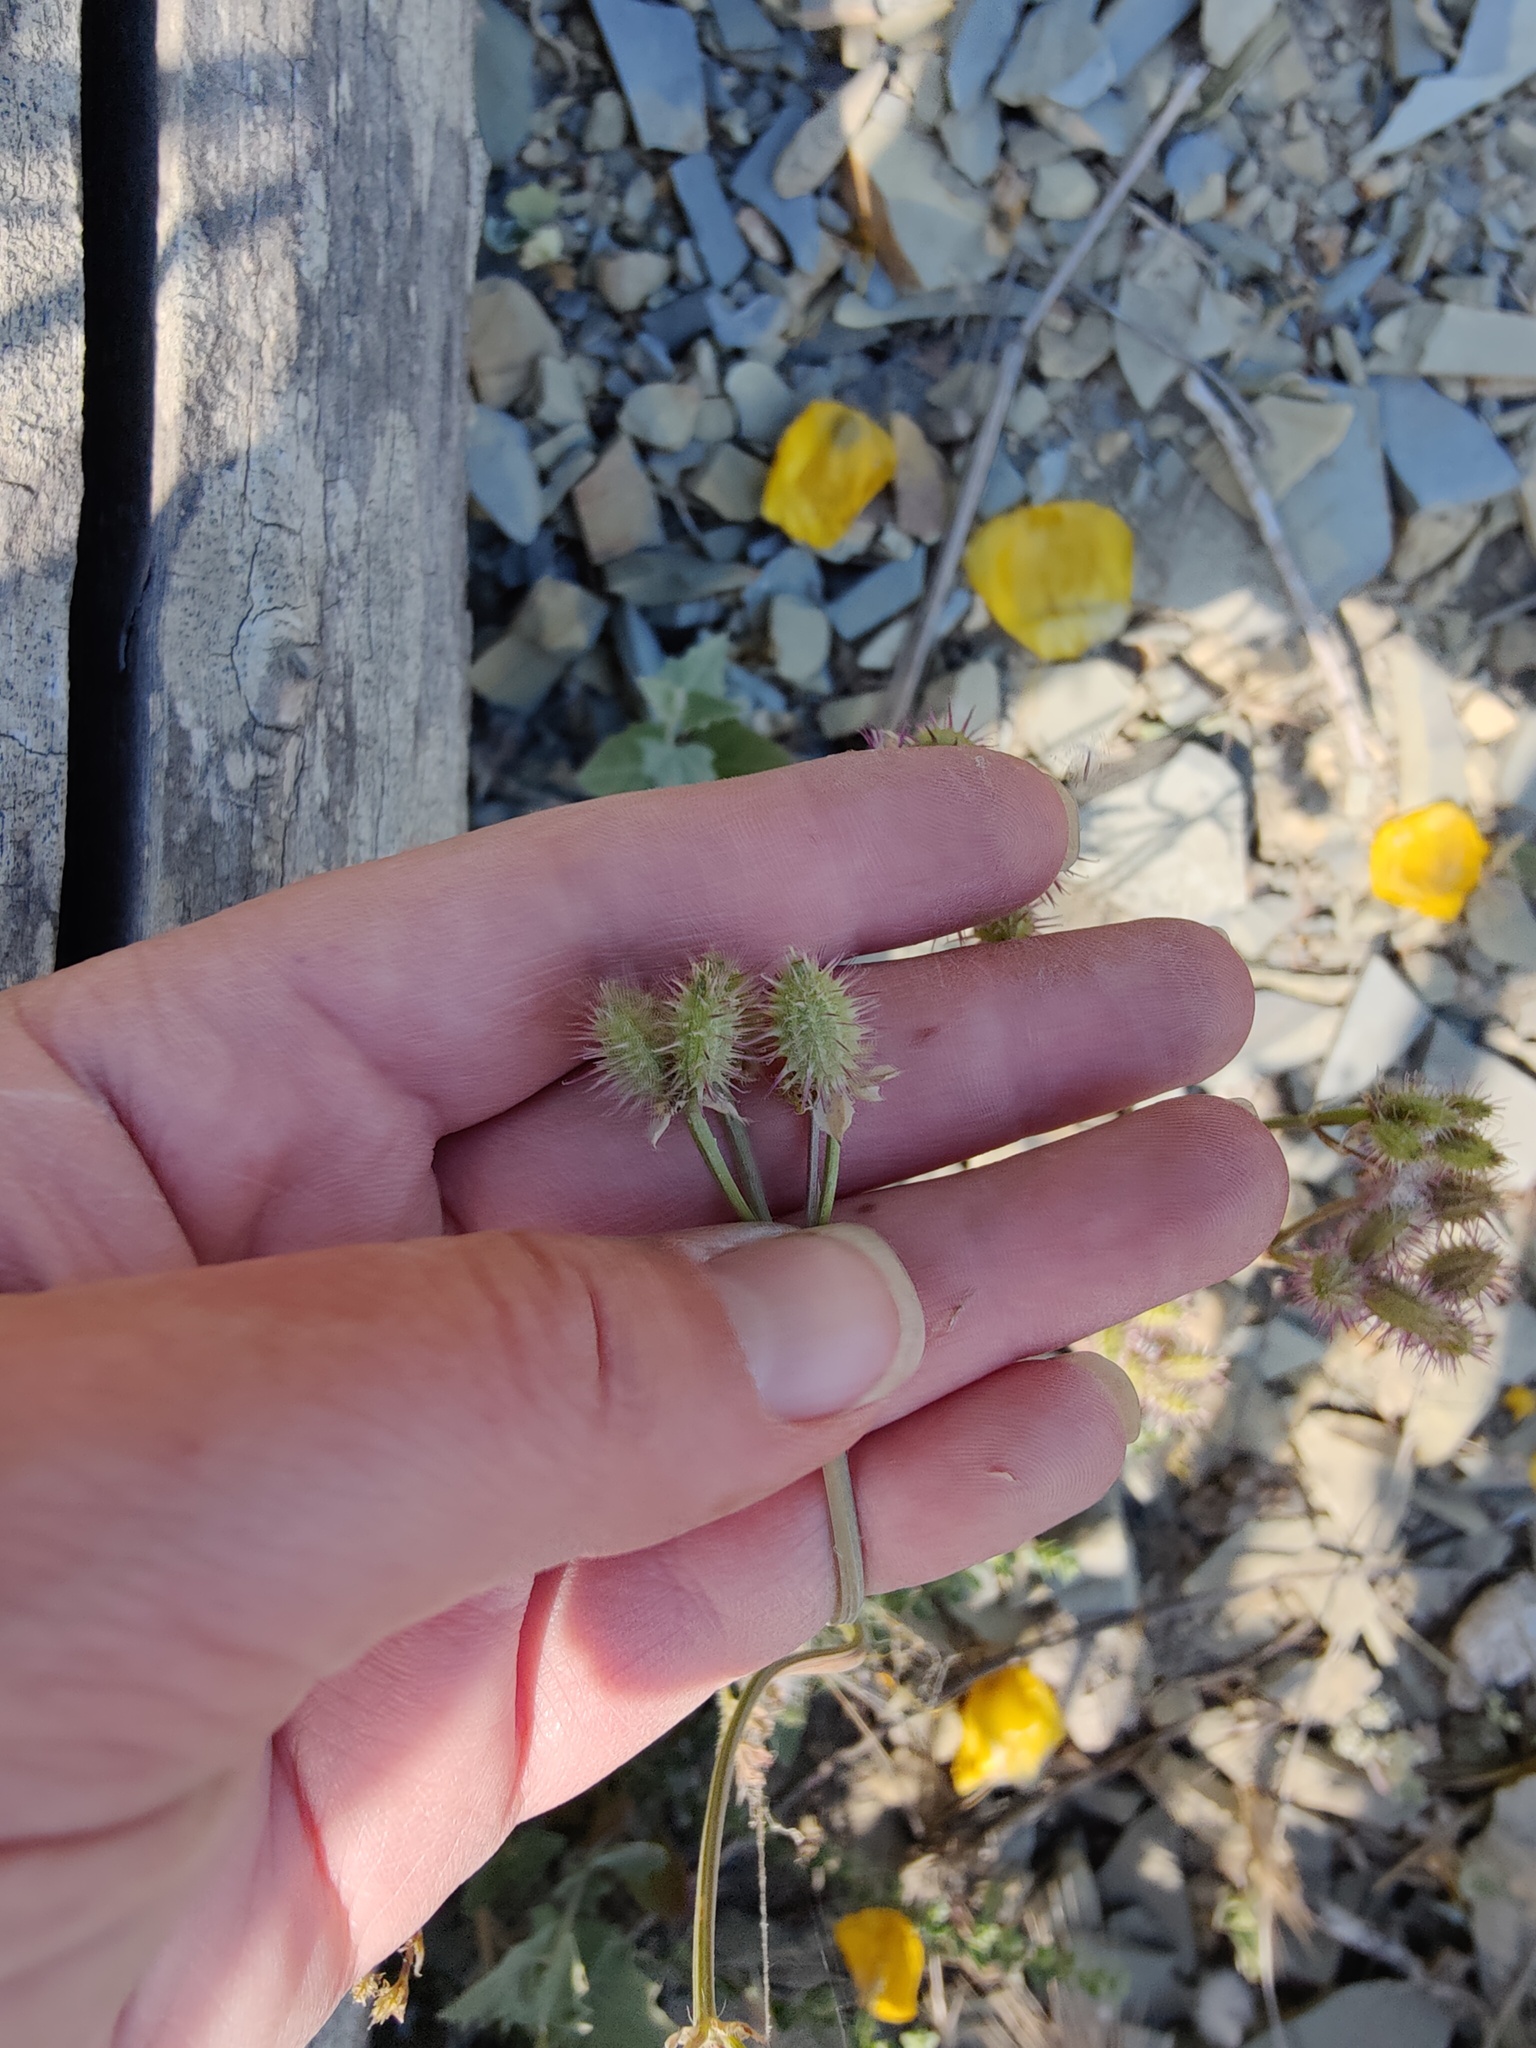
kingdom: Plantae
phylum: Tracheophyta
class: Magnoliopsida
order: Apiales
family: Apiaceae
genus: Orlaya
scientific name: Orlaya daucoides
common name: Flat-fruit orlaya
